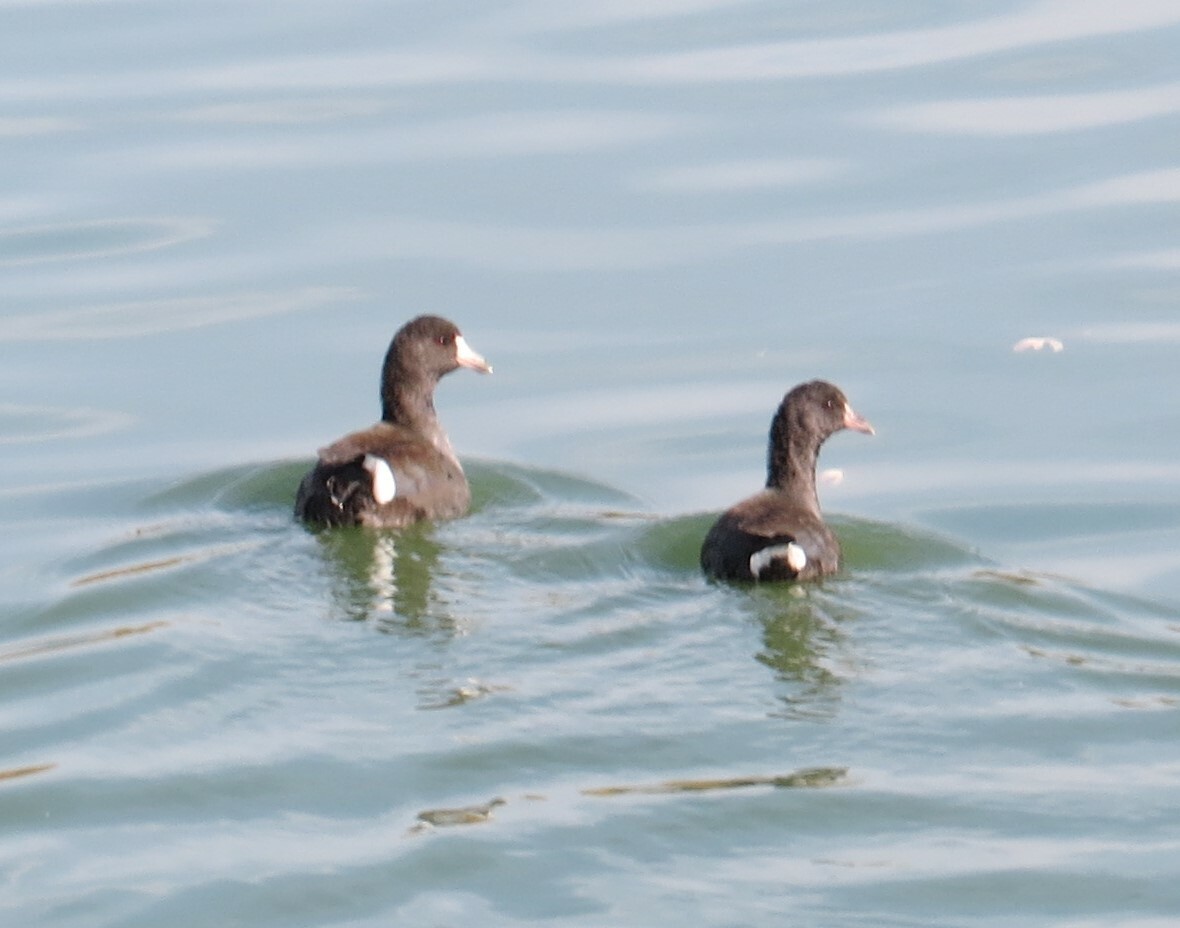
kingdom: Animalia
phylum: Chordata
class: Aves
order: Gruiformes
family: Rallidae
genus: Fulica
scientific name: Fulica americana
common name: American coot
